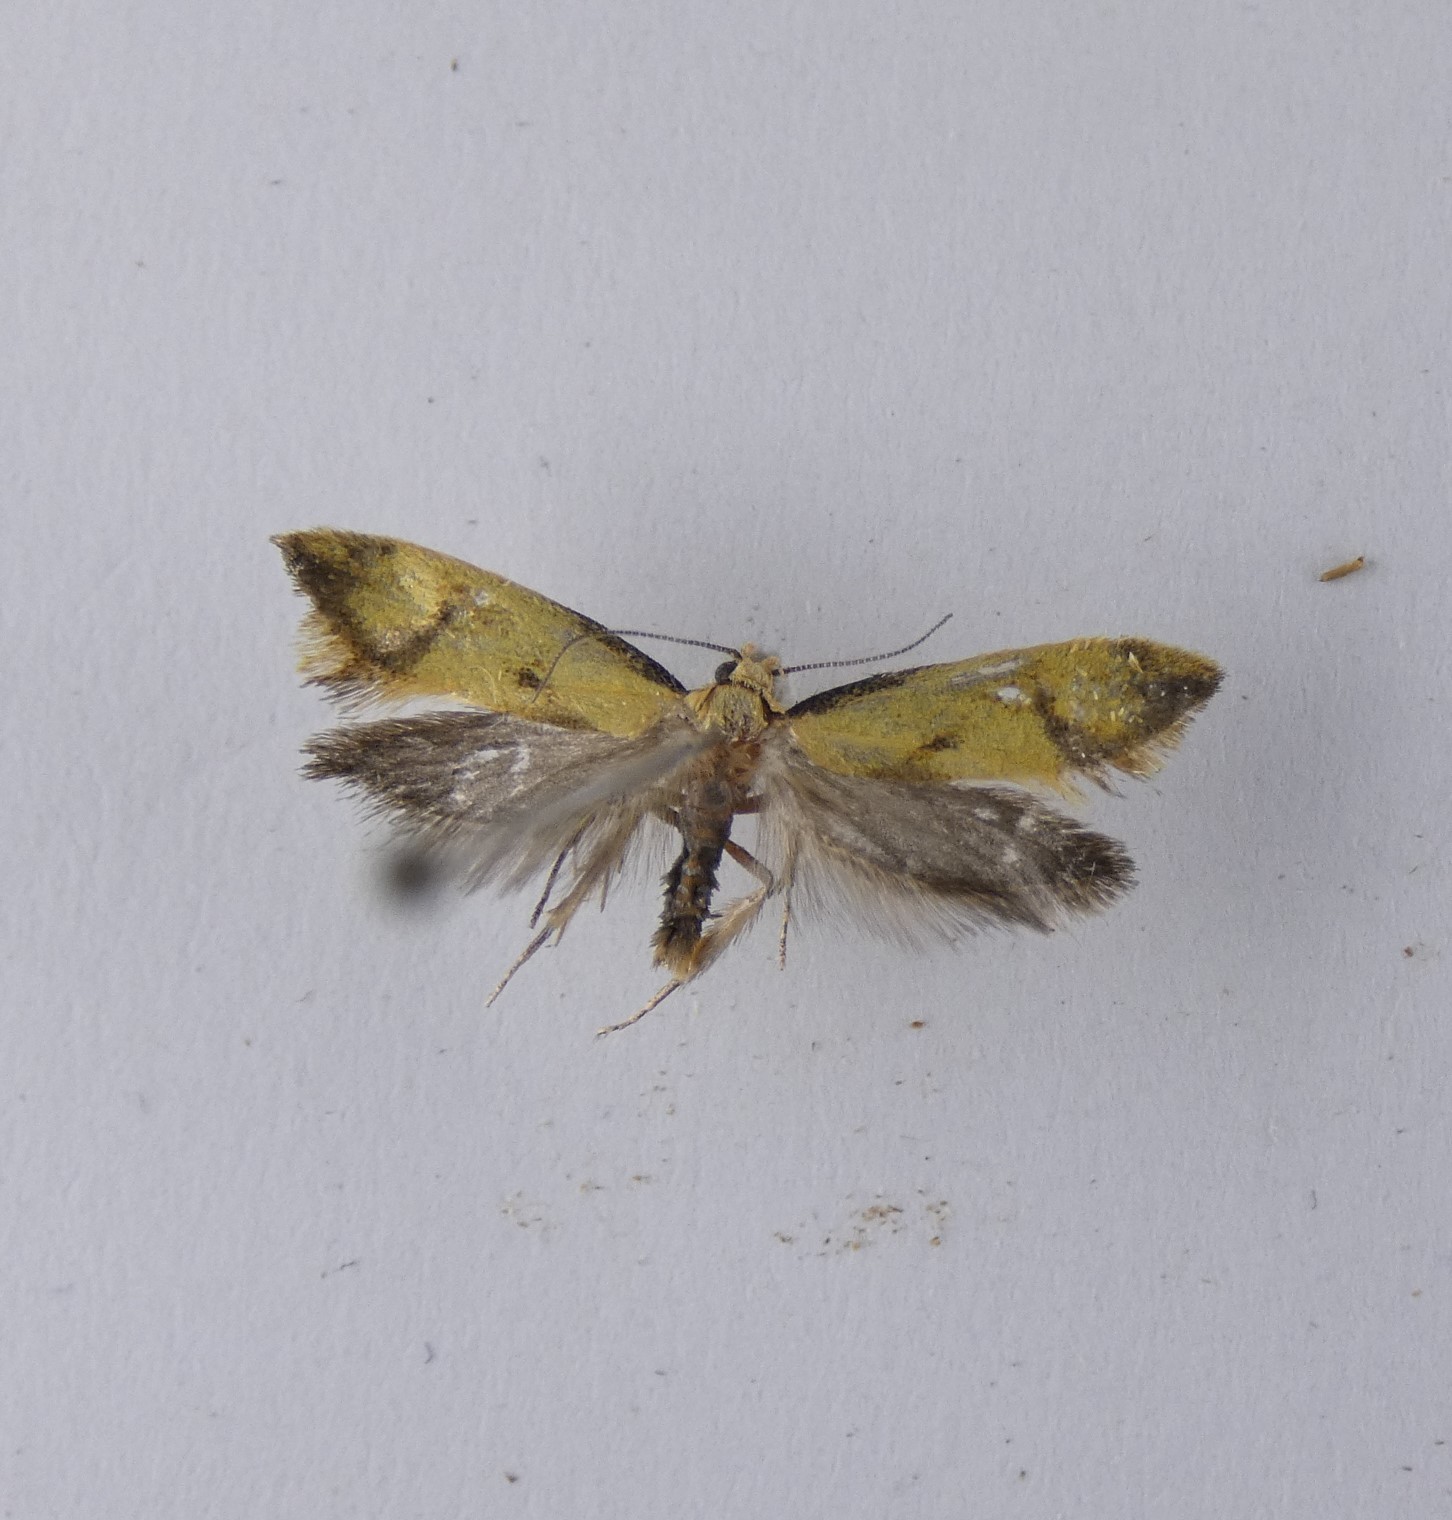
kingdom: Animalia
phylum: Arthropoda
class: Insecta
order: Lepidoptera
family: Oecophoridae
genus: Tingena
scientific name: Tingena actinias
